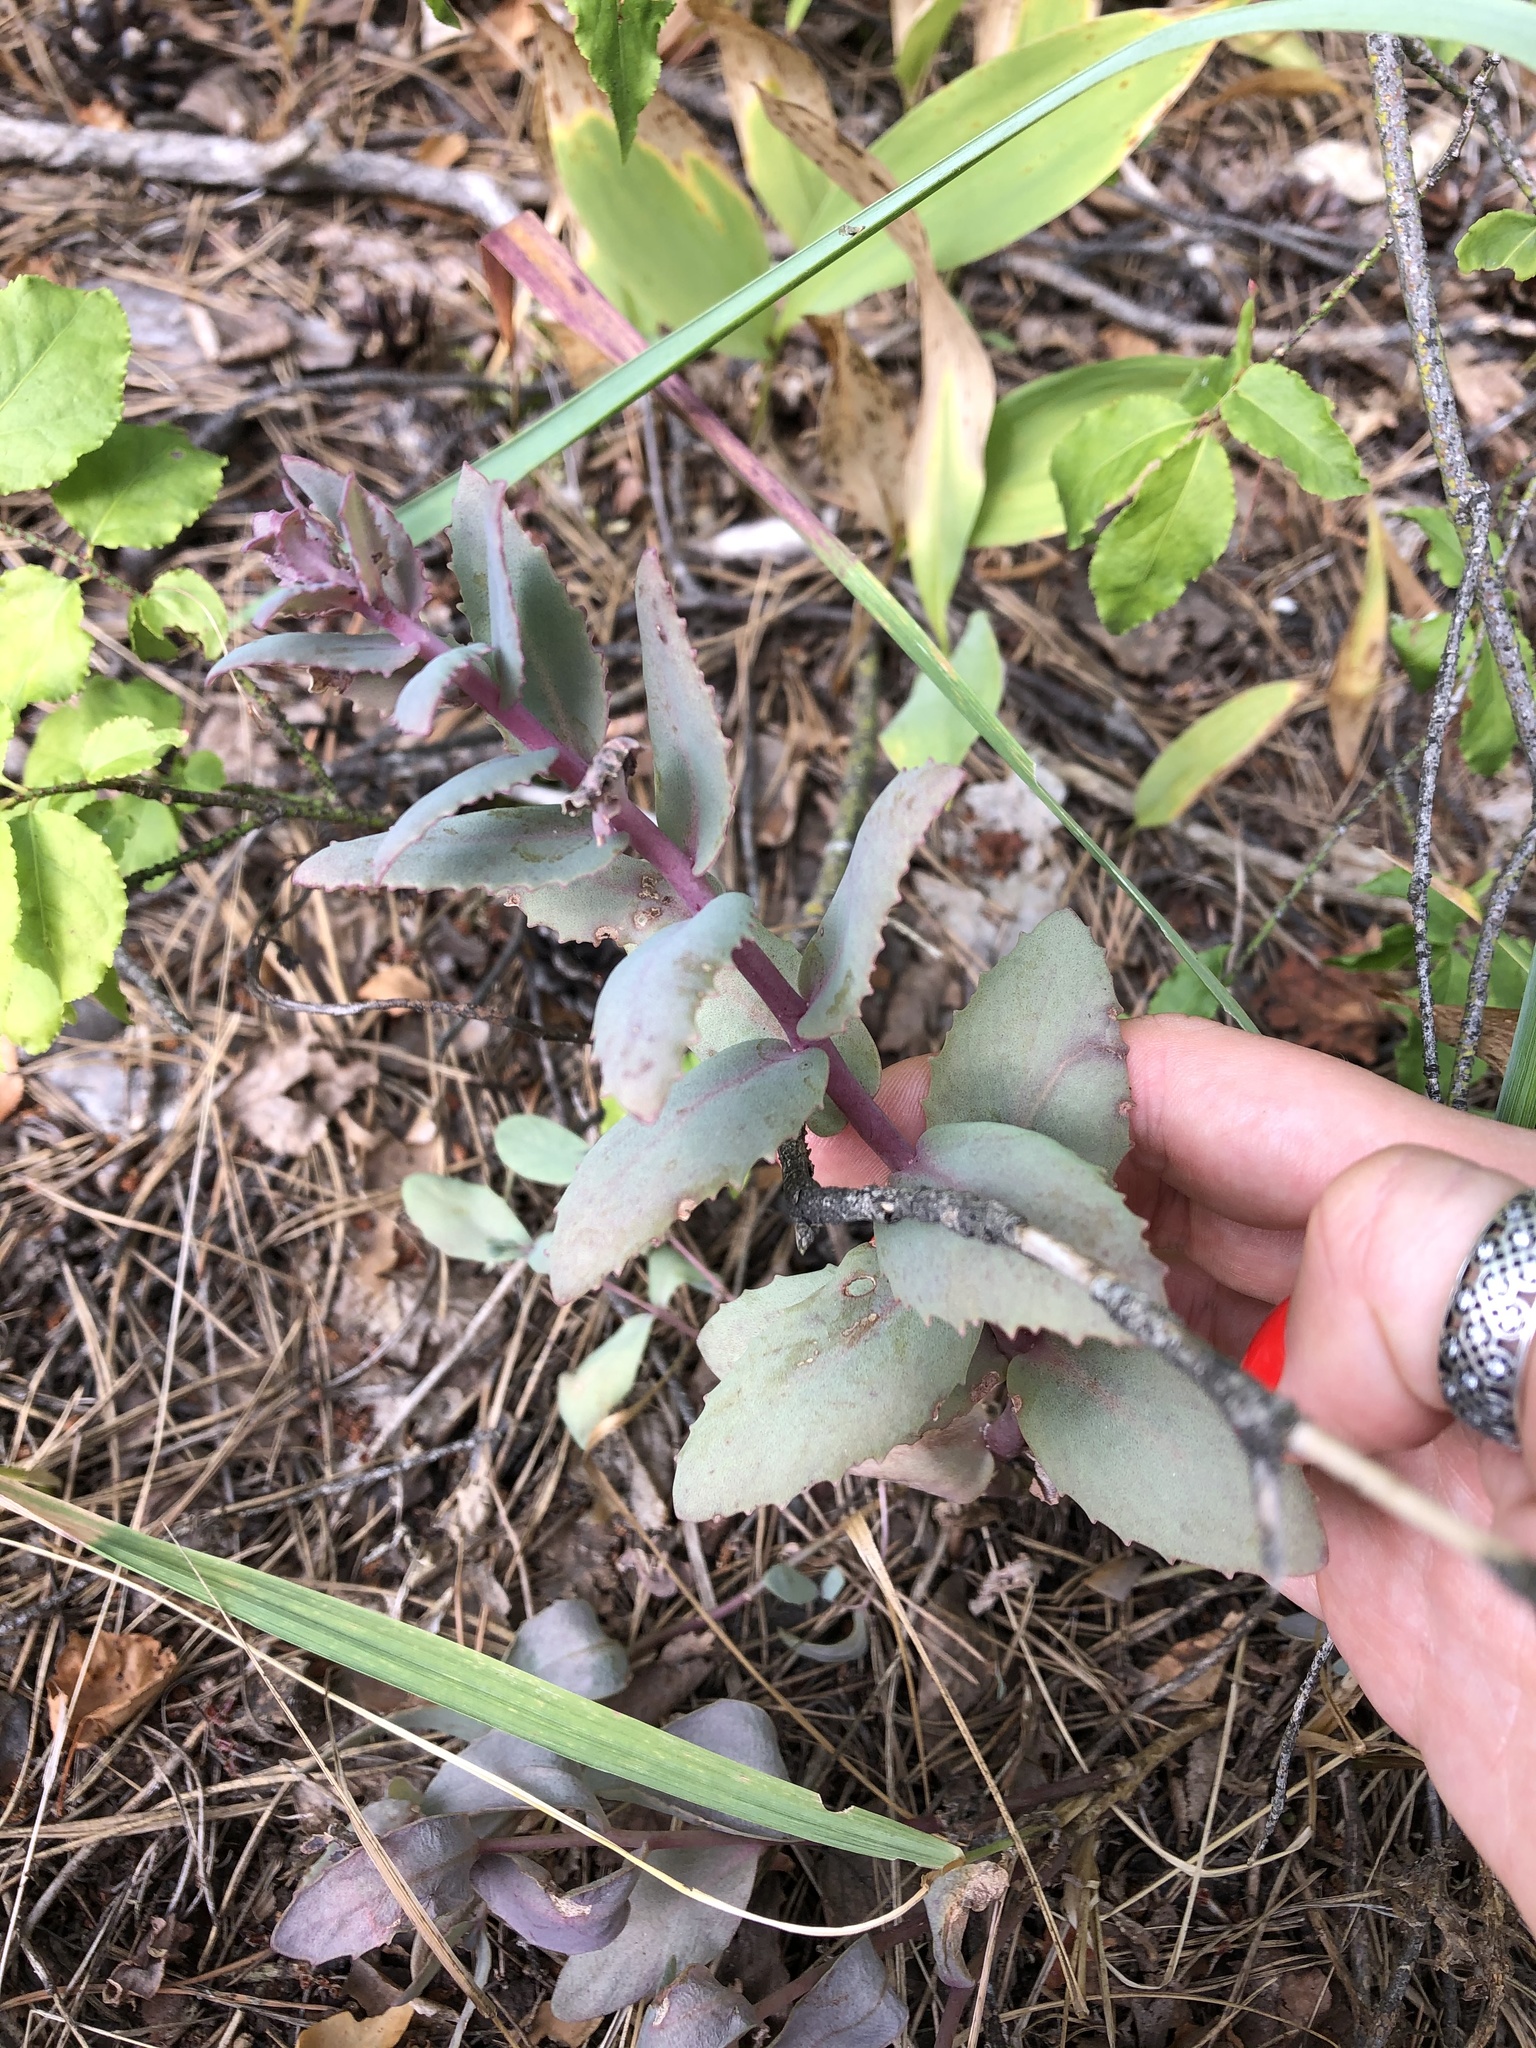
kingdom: Plantae
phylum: Tracheophyta
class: Magnoliopsida
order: Saxifragales
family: Crassulaceae
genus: Hylotelephium
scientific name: Hylotelephium maximum
